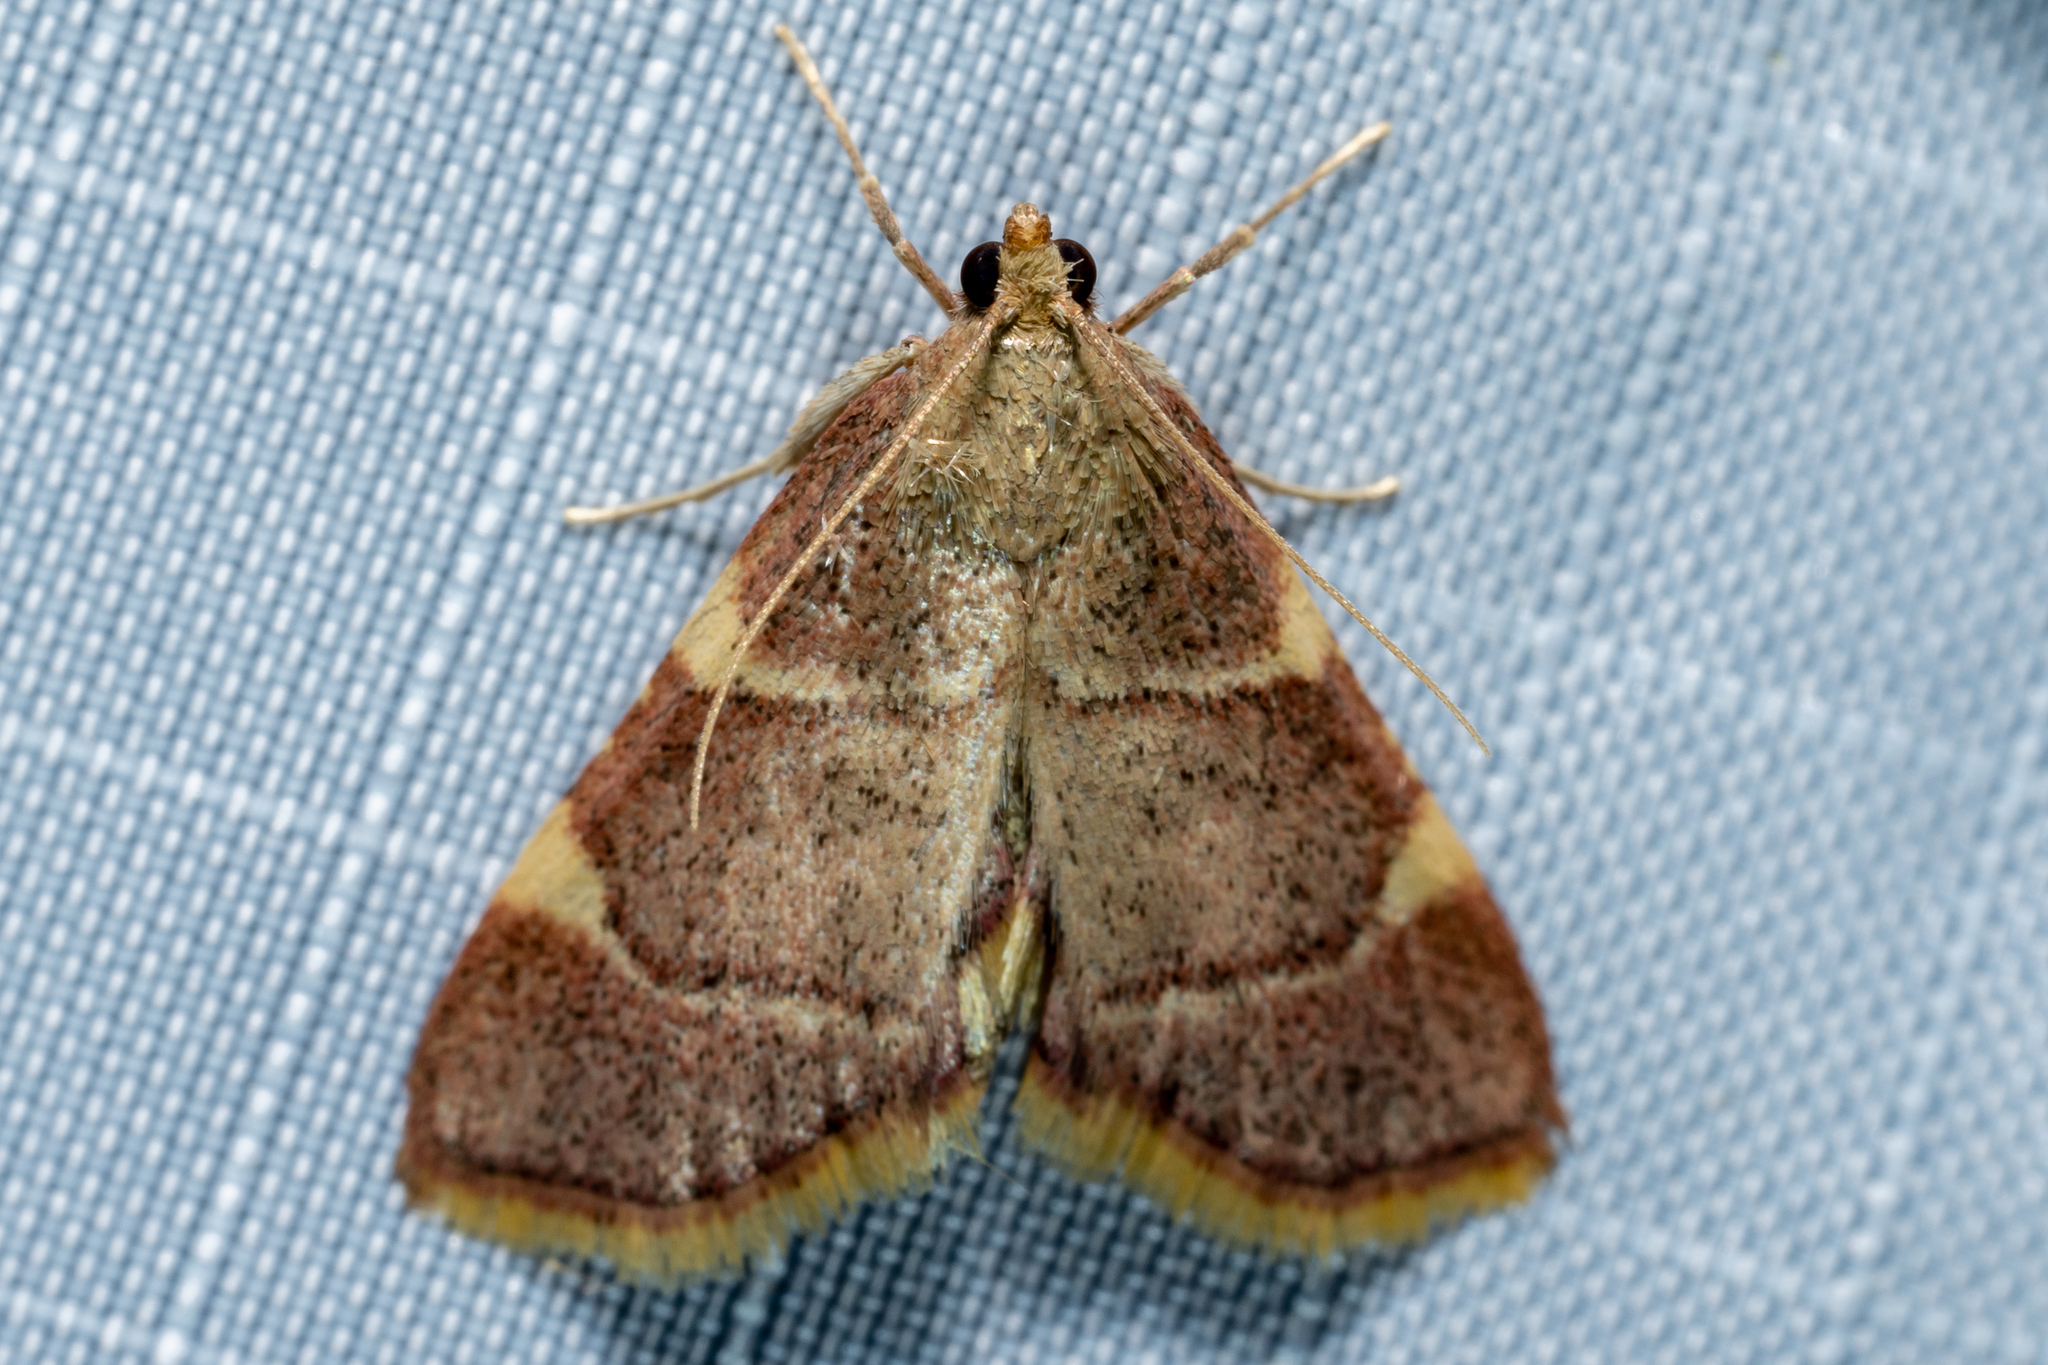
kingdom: Animalia
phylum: Arthropoda
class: Insecta
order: Lepidoptera
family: Pyralidae
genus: Hypsopygia
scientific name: Hypsopygia olinalis
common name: Yellow-fringed dolichomia moth
